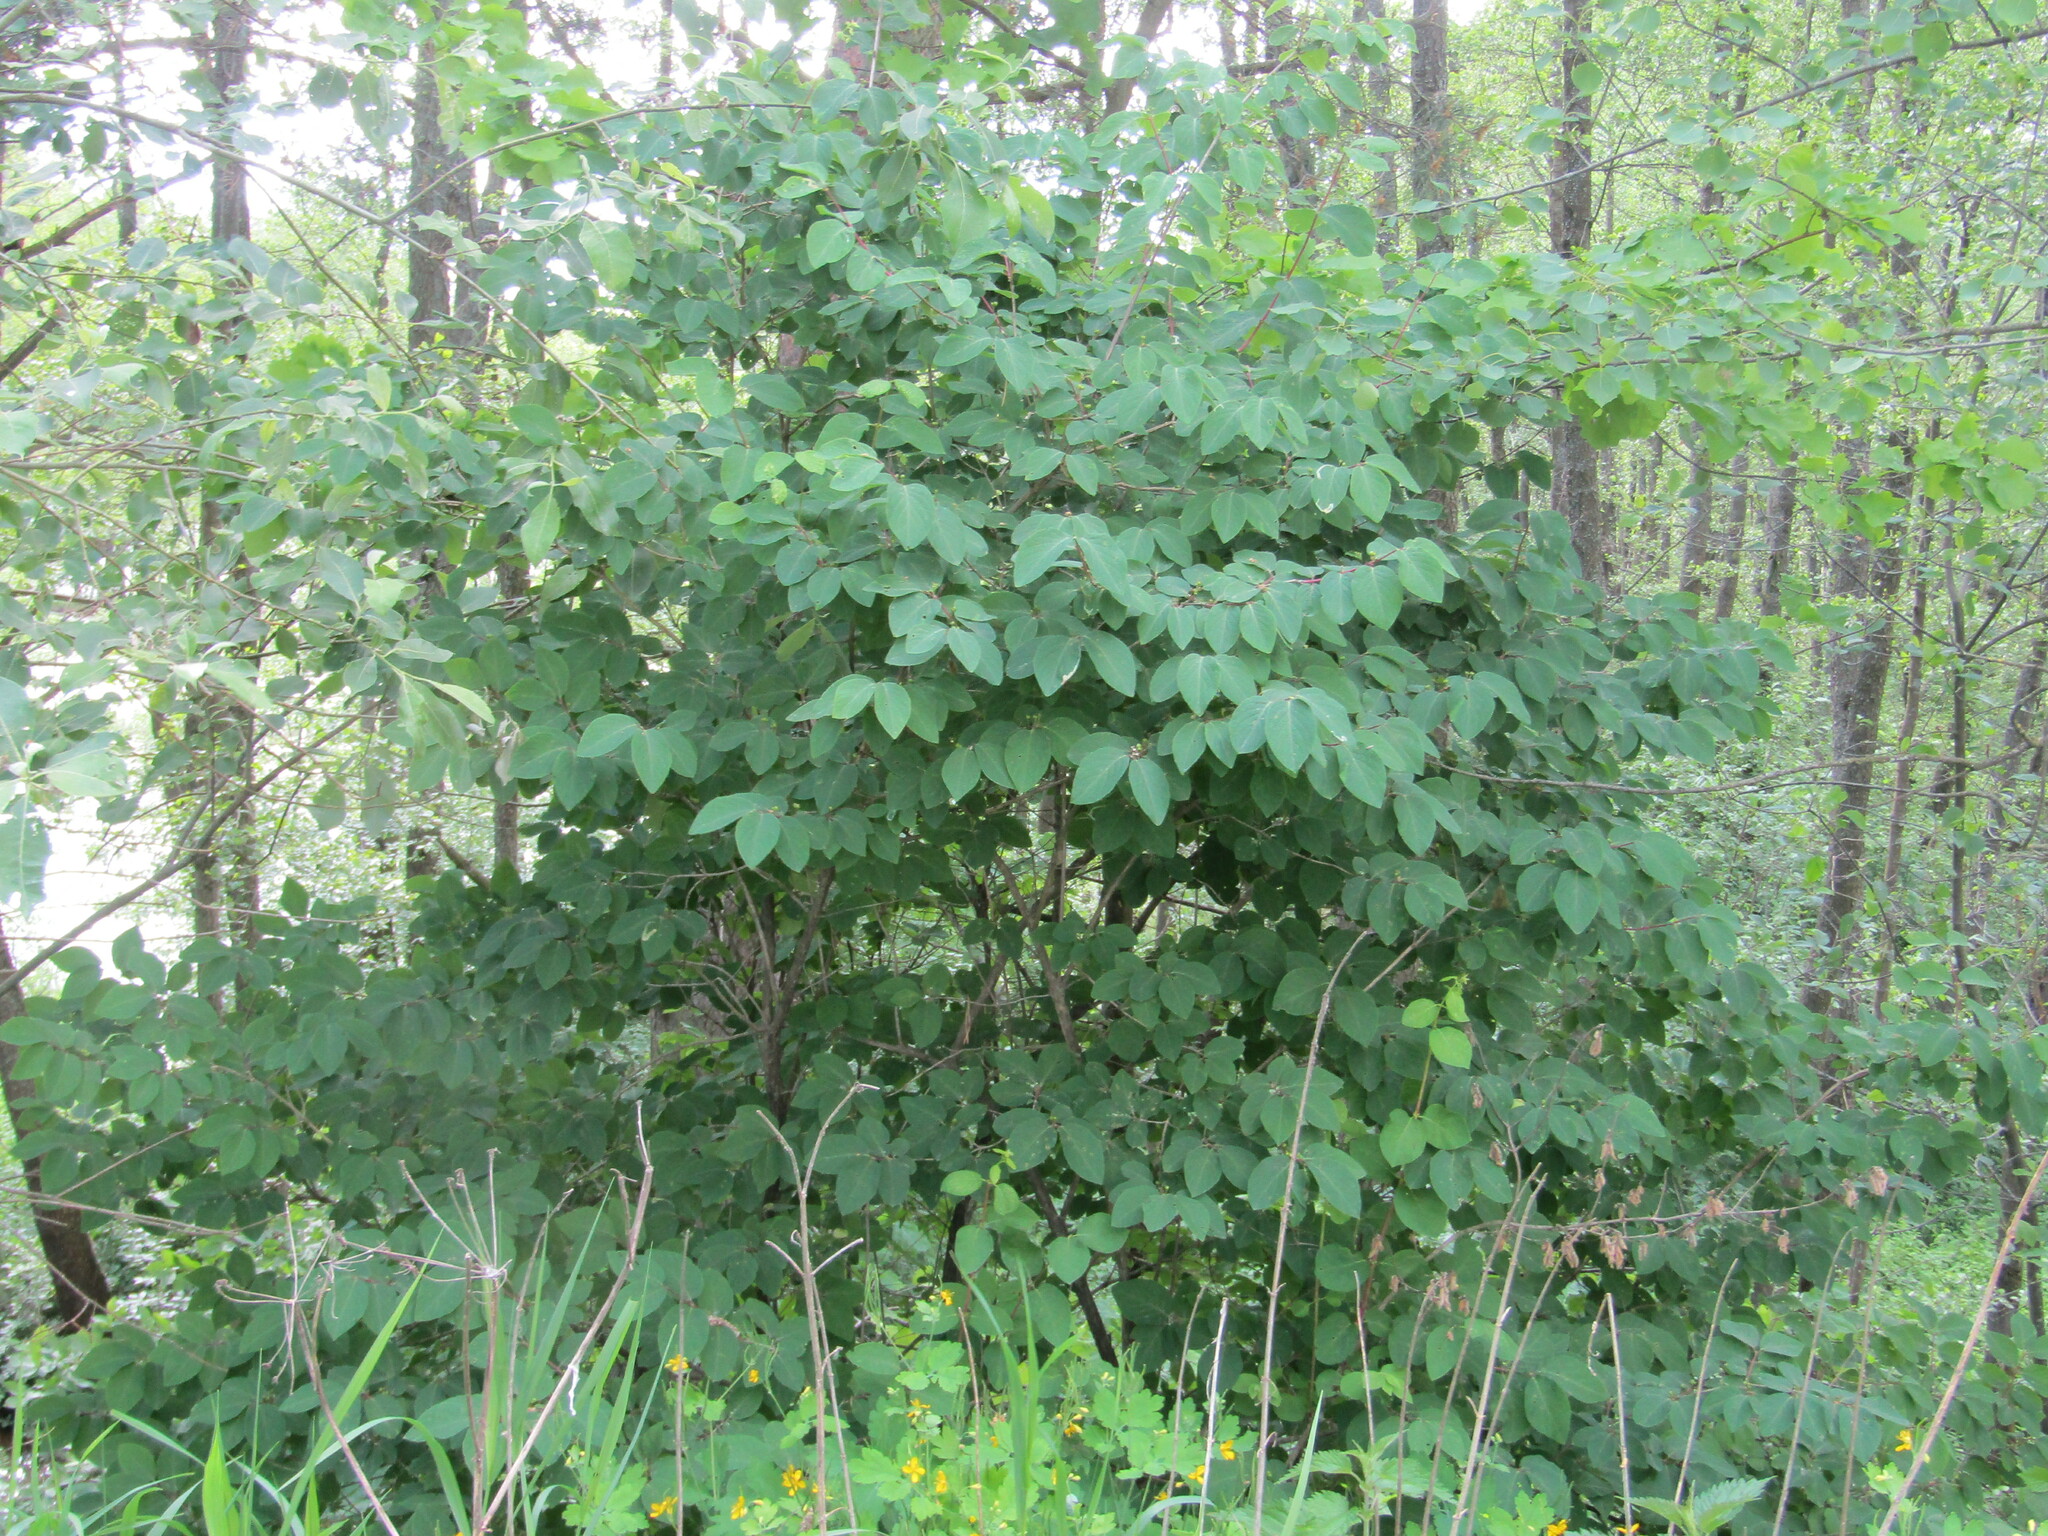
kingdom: Plantae
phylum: Tracheophyta
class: Magnoliopsida
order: Dipsacales
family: Caprifoliaceae
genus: Lonicera
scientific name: Lonicera xylosteum
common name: Fly honeysuckle
